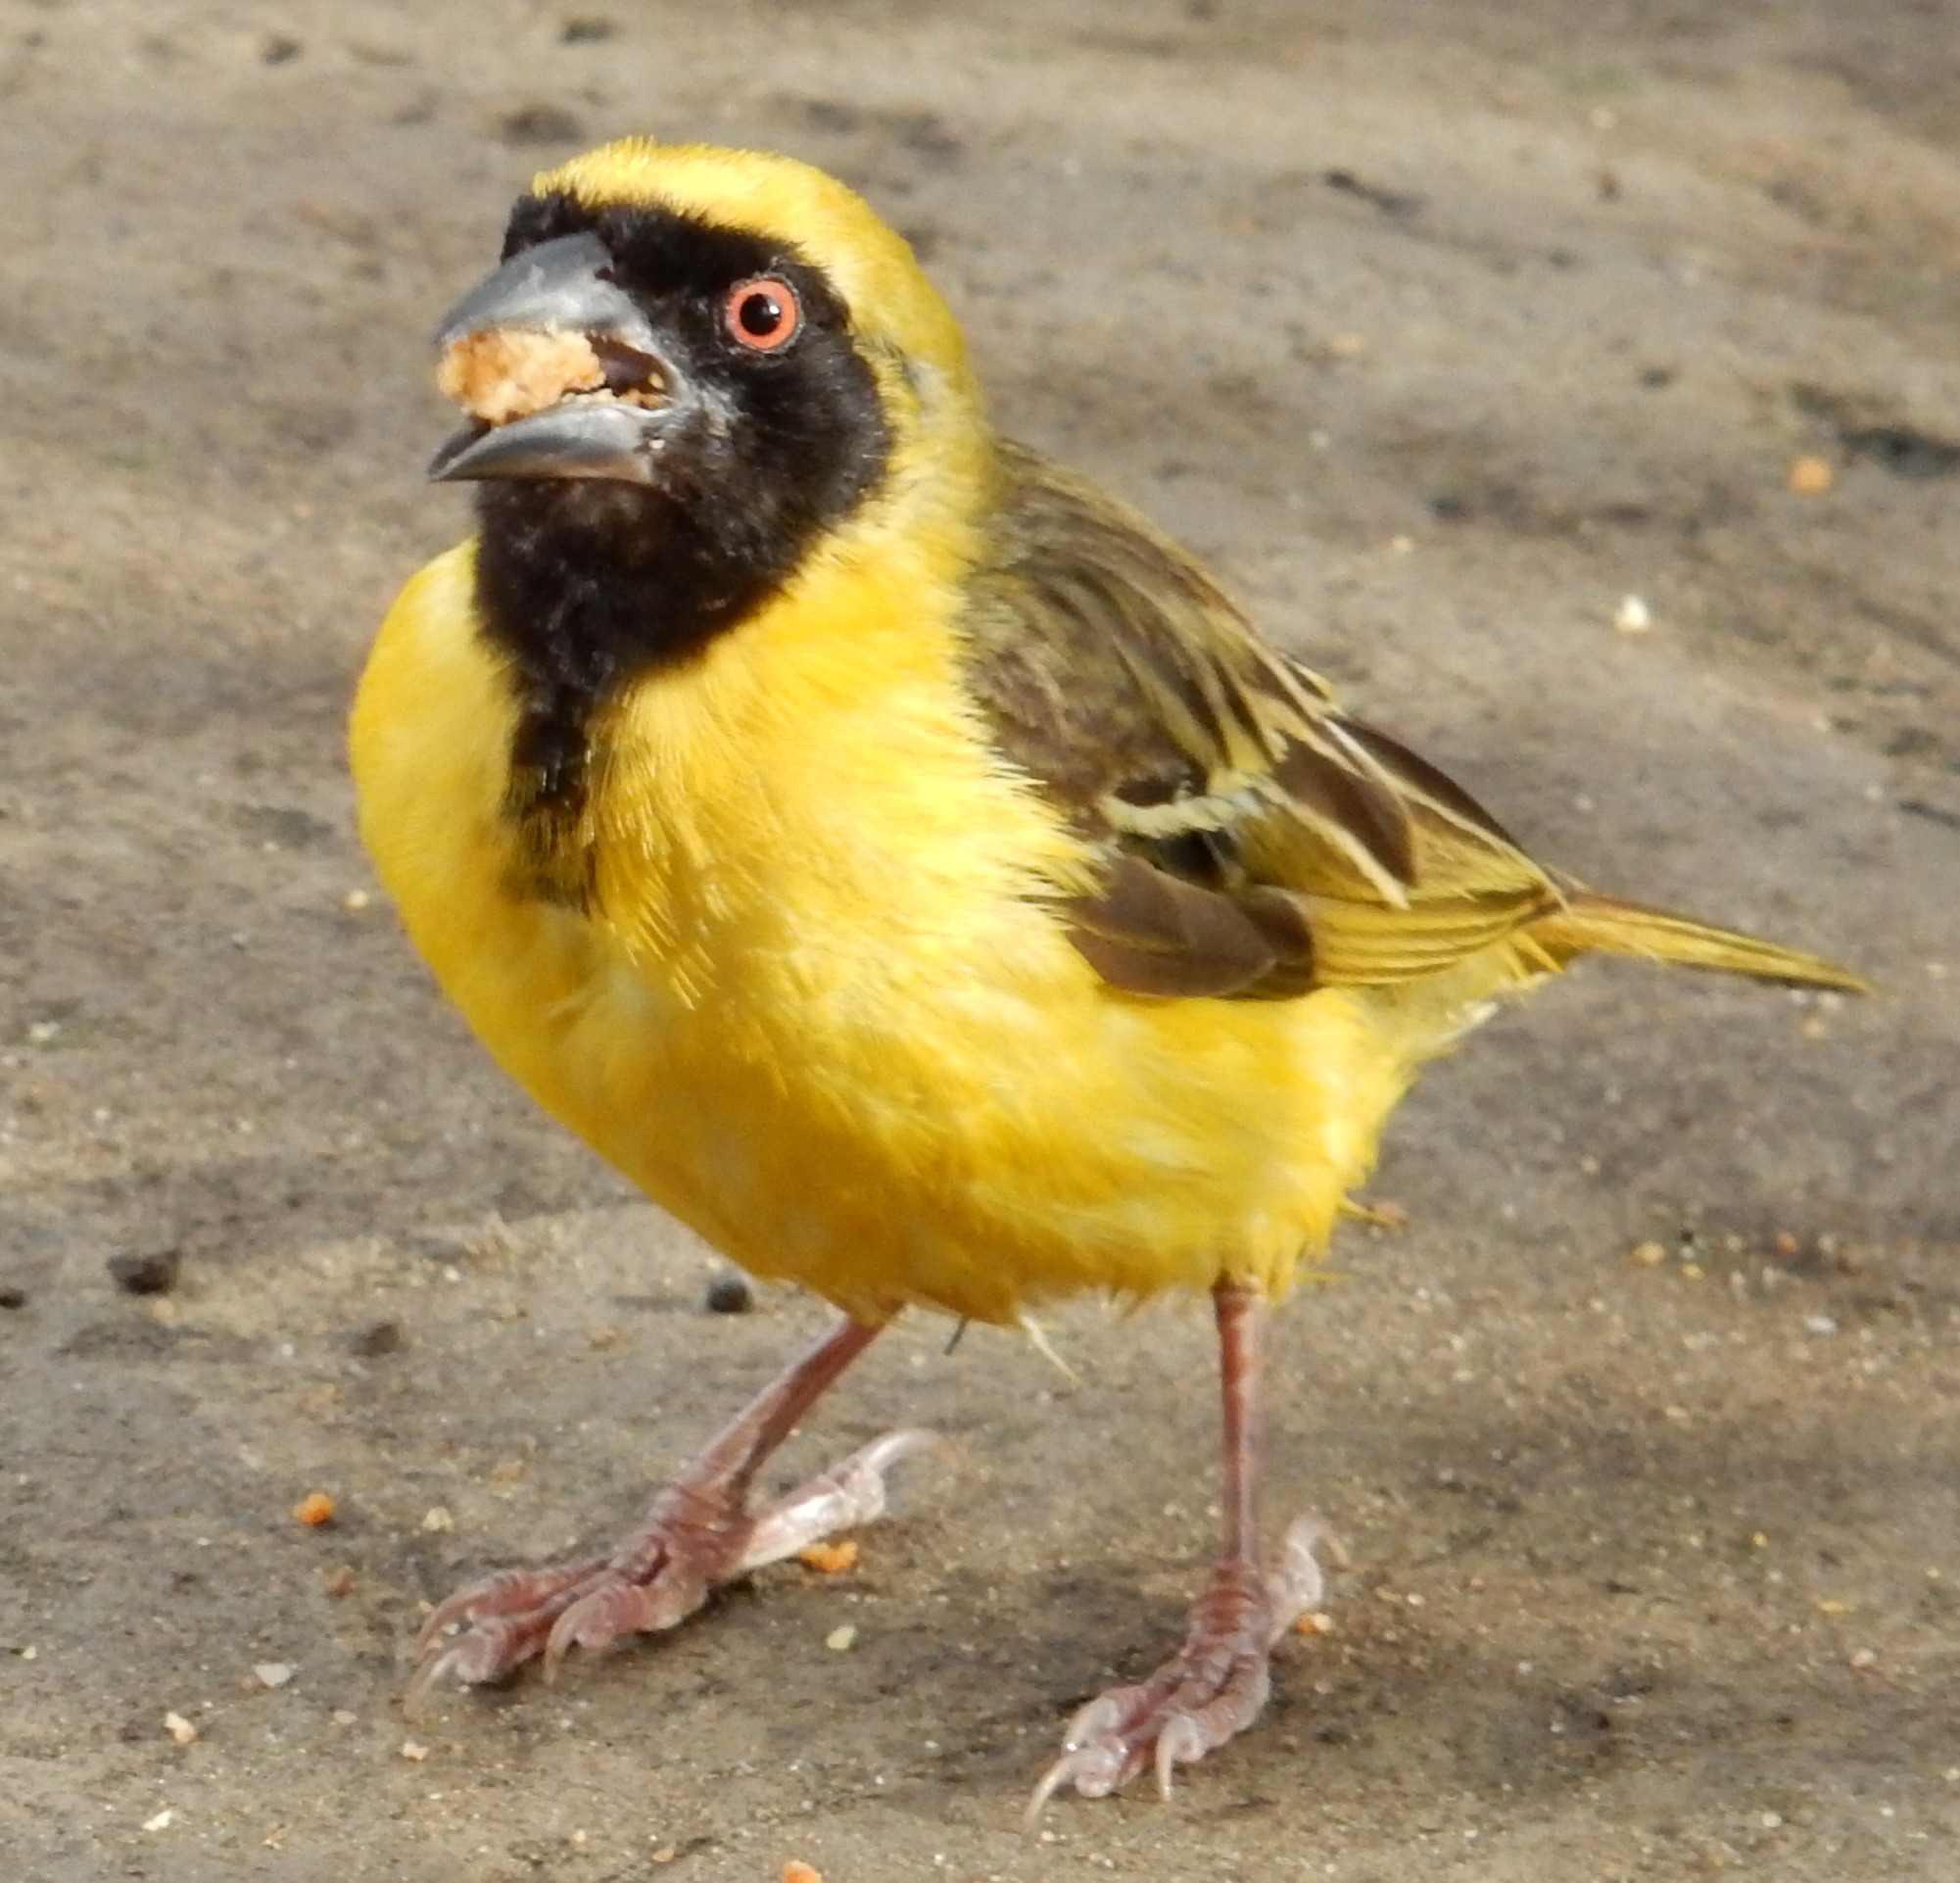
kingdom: Animalia
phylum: Chordata
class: Aves
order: Passeriformes
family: Ploceidae
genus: Ploceus
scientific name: Ploceus velatus
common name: Southern masked weaver
